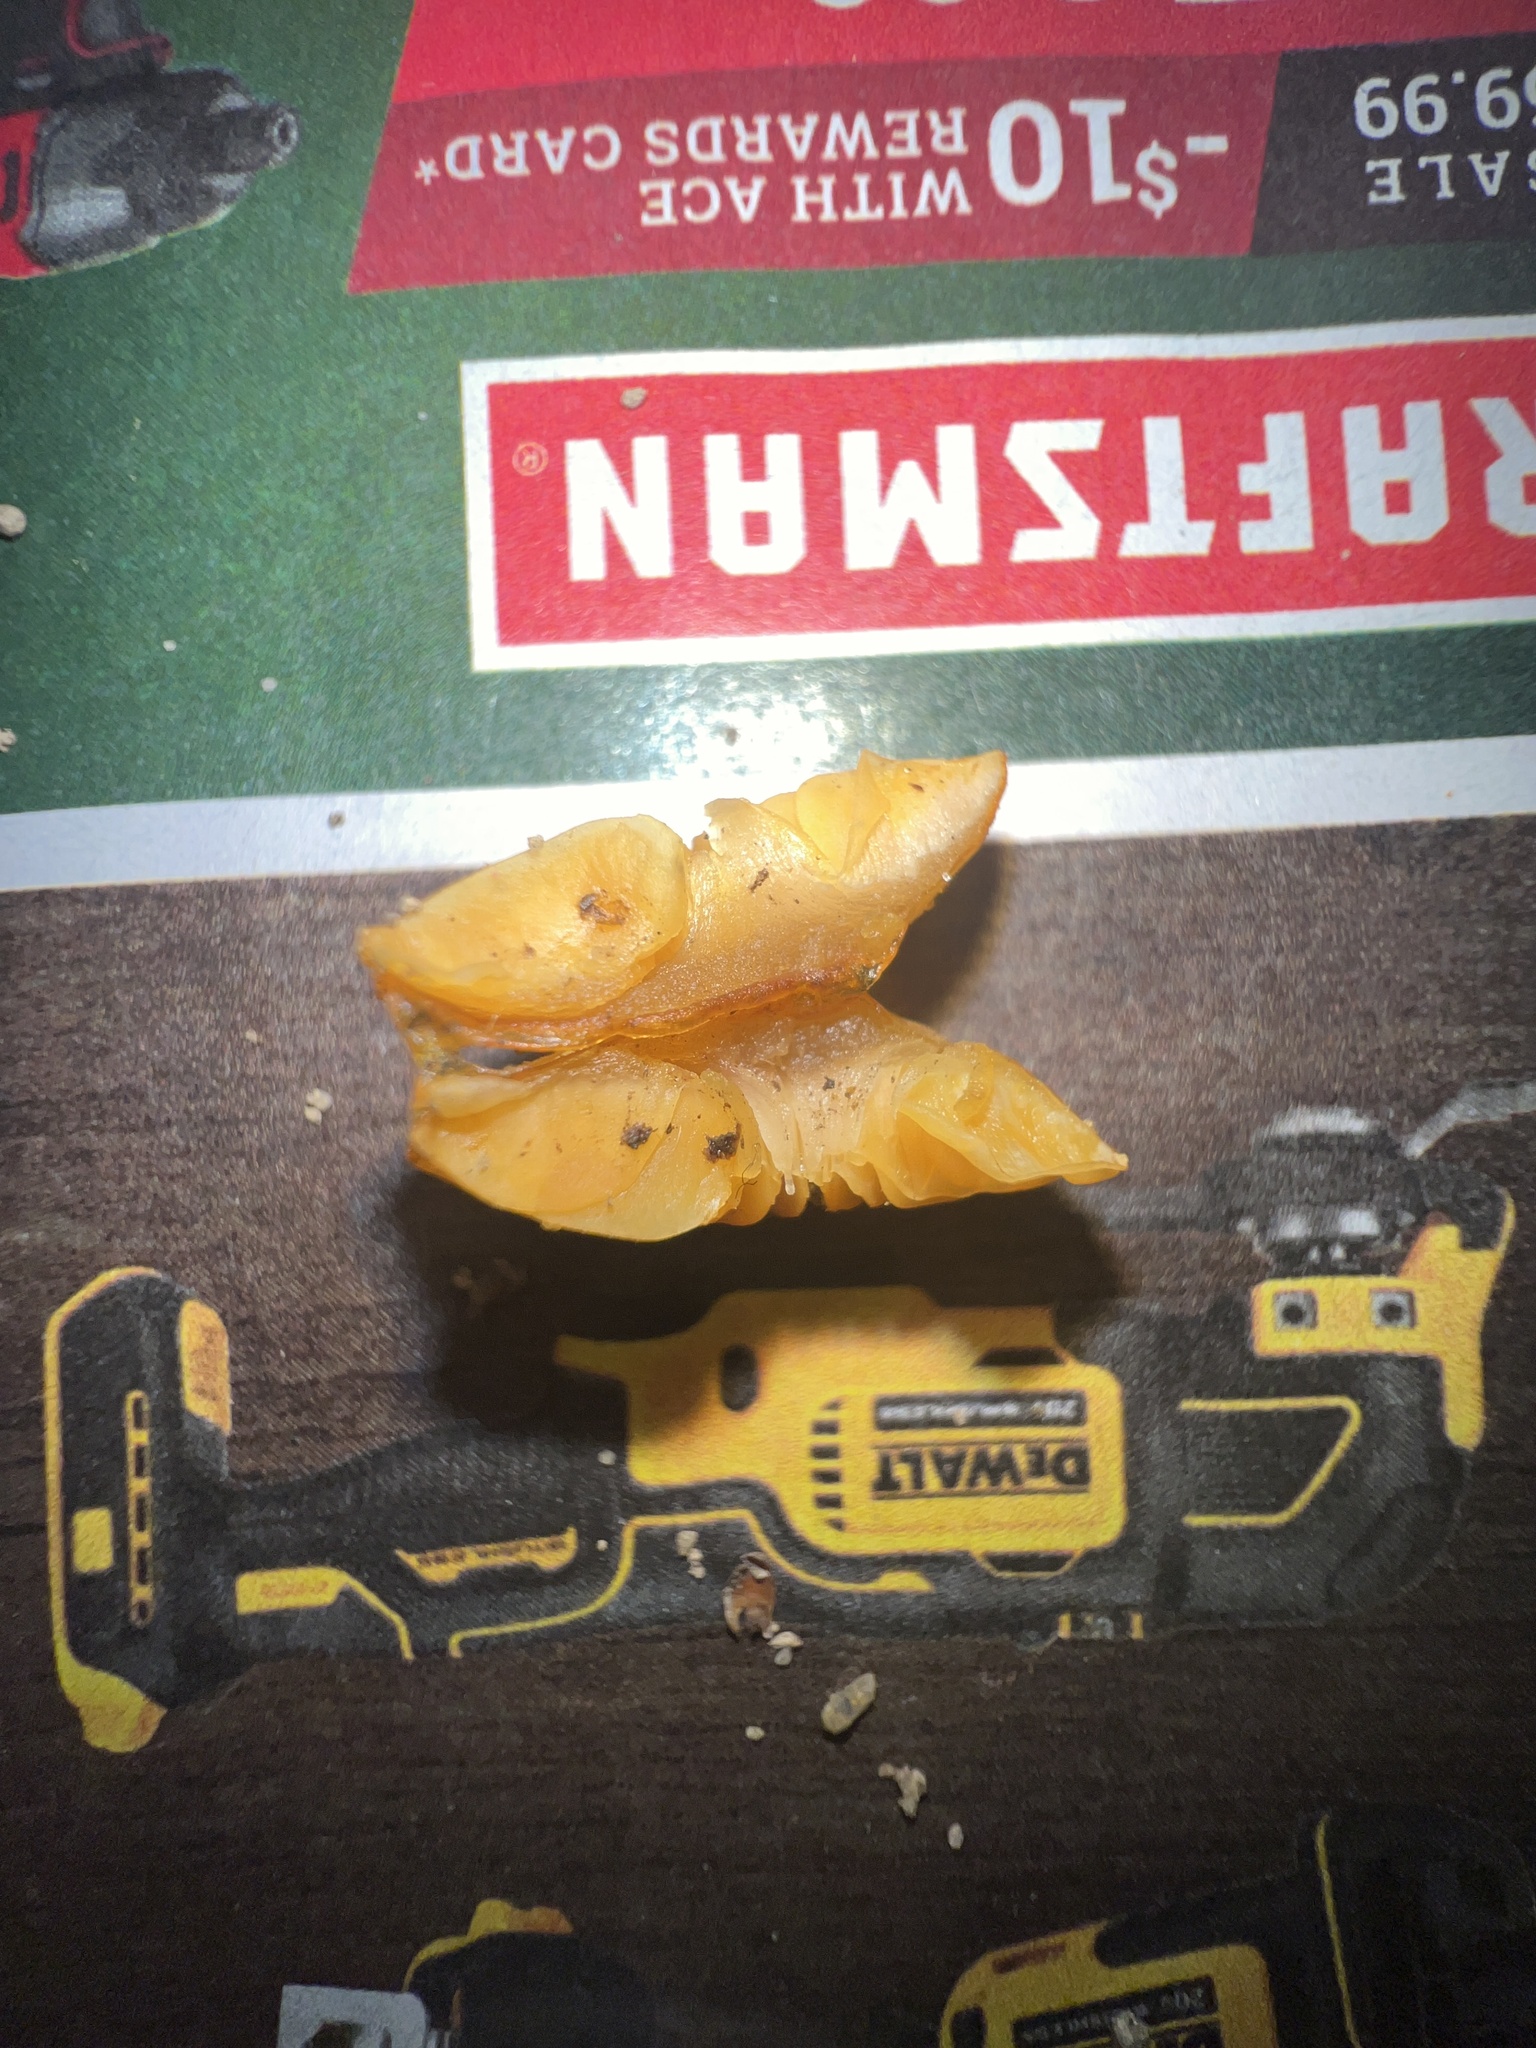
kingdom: Fungi
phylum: Basidiomycota
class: Agaricomycetes
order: Agaricales
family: Mycenaceae
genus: Mycena
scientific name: Mycena leaiana
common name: Orange mycena
